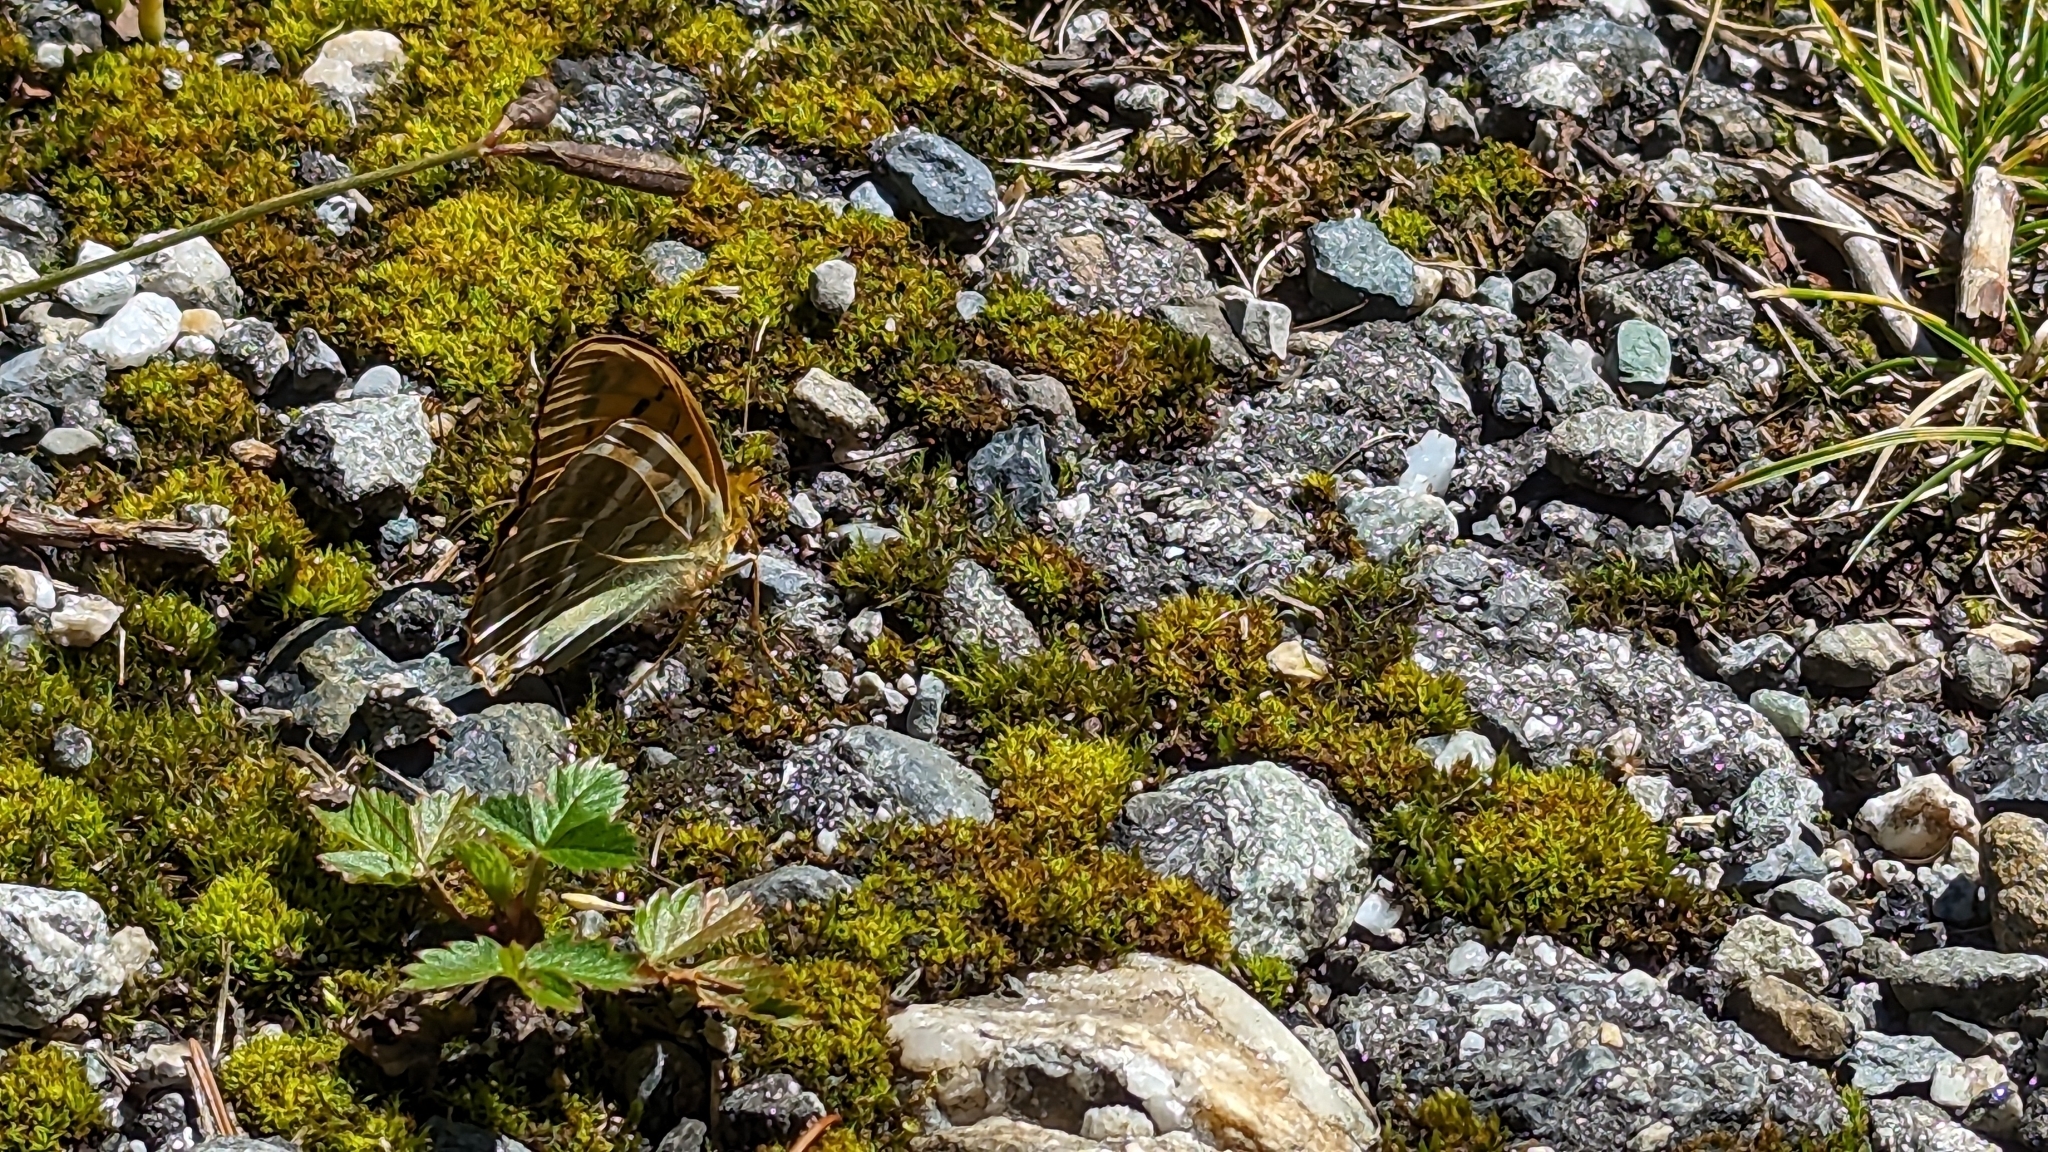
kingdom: Animalia
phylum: Arthropoda
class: Insecta
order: Lepidoptera
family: Nymphalidae
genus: Argynnis
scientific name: Argynnis paphia
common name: Silver-washed fritillary
